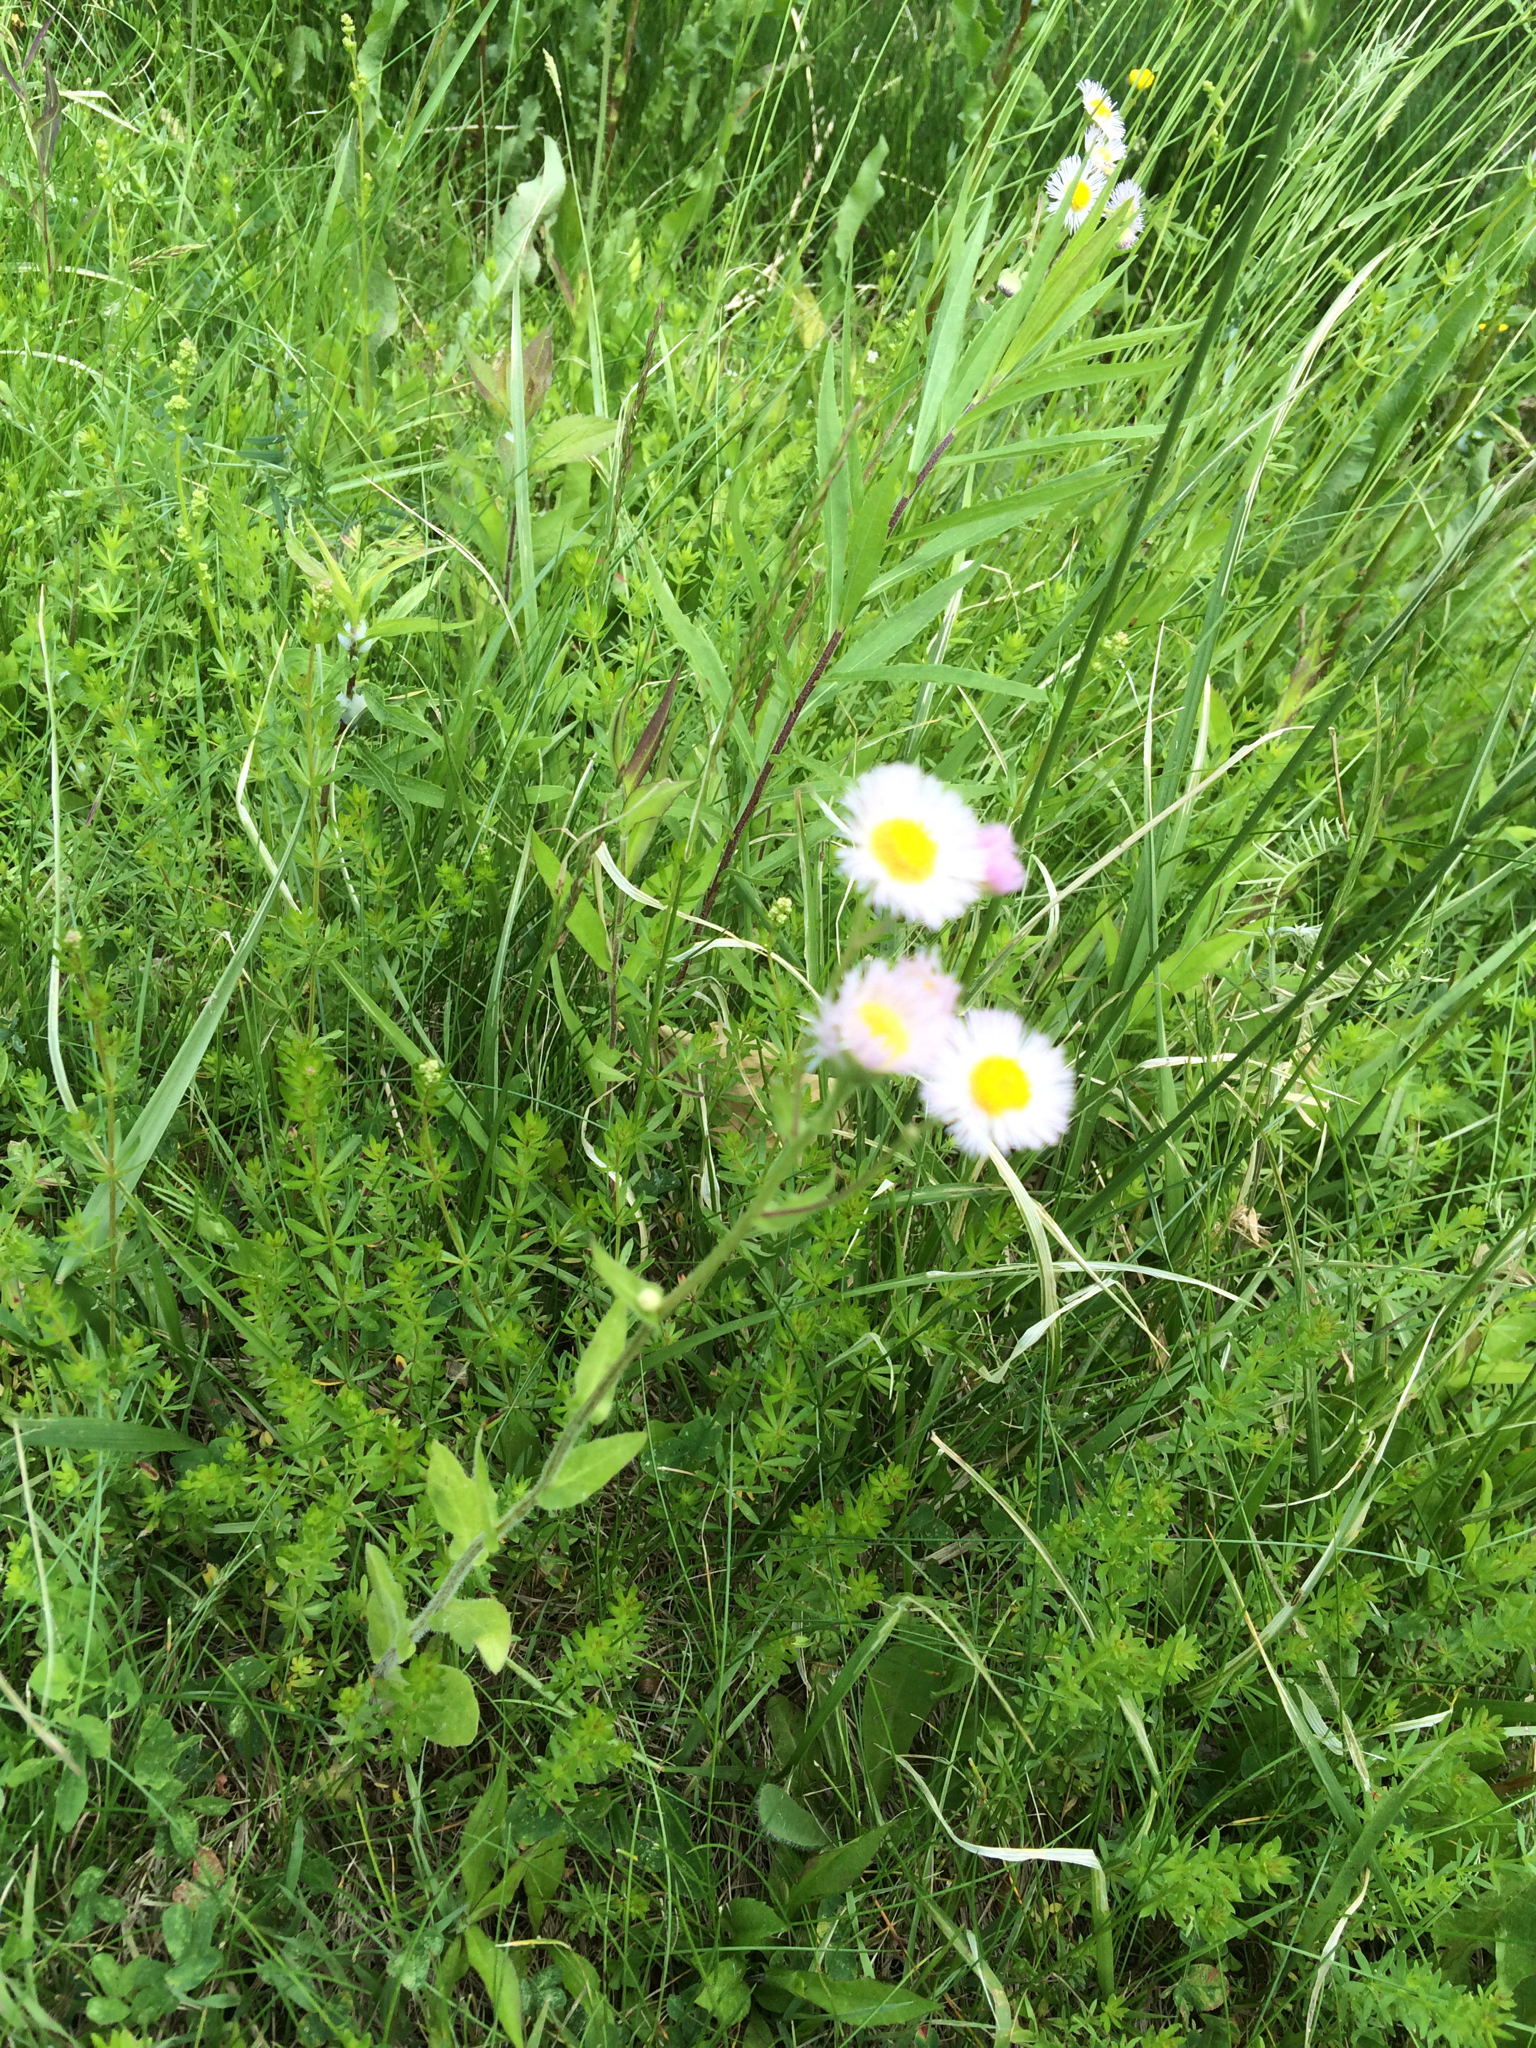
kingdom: Plantae
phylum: Tracheophyta
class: Magnoliopsida
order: Asterales
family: Asteraceae
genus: Erigeron
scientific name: Erigeron philadelphicus
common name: Robin's-plantain
